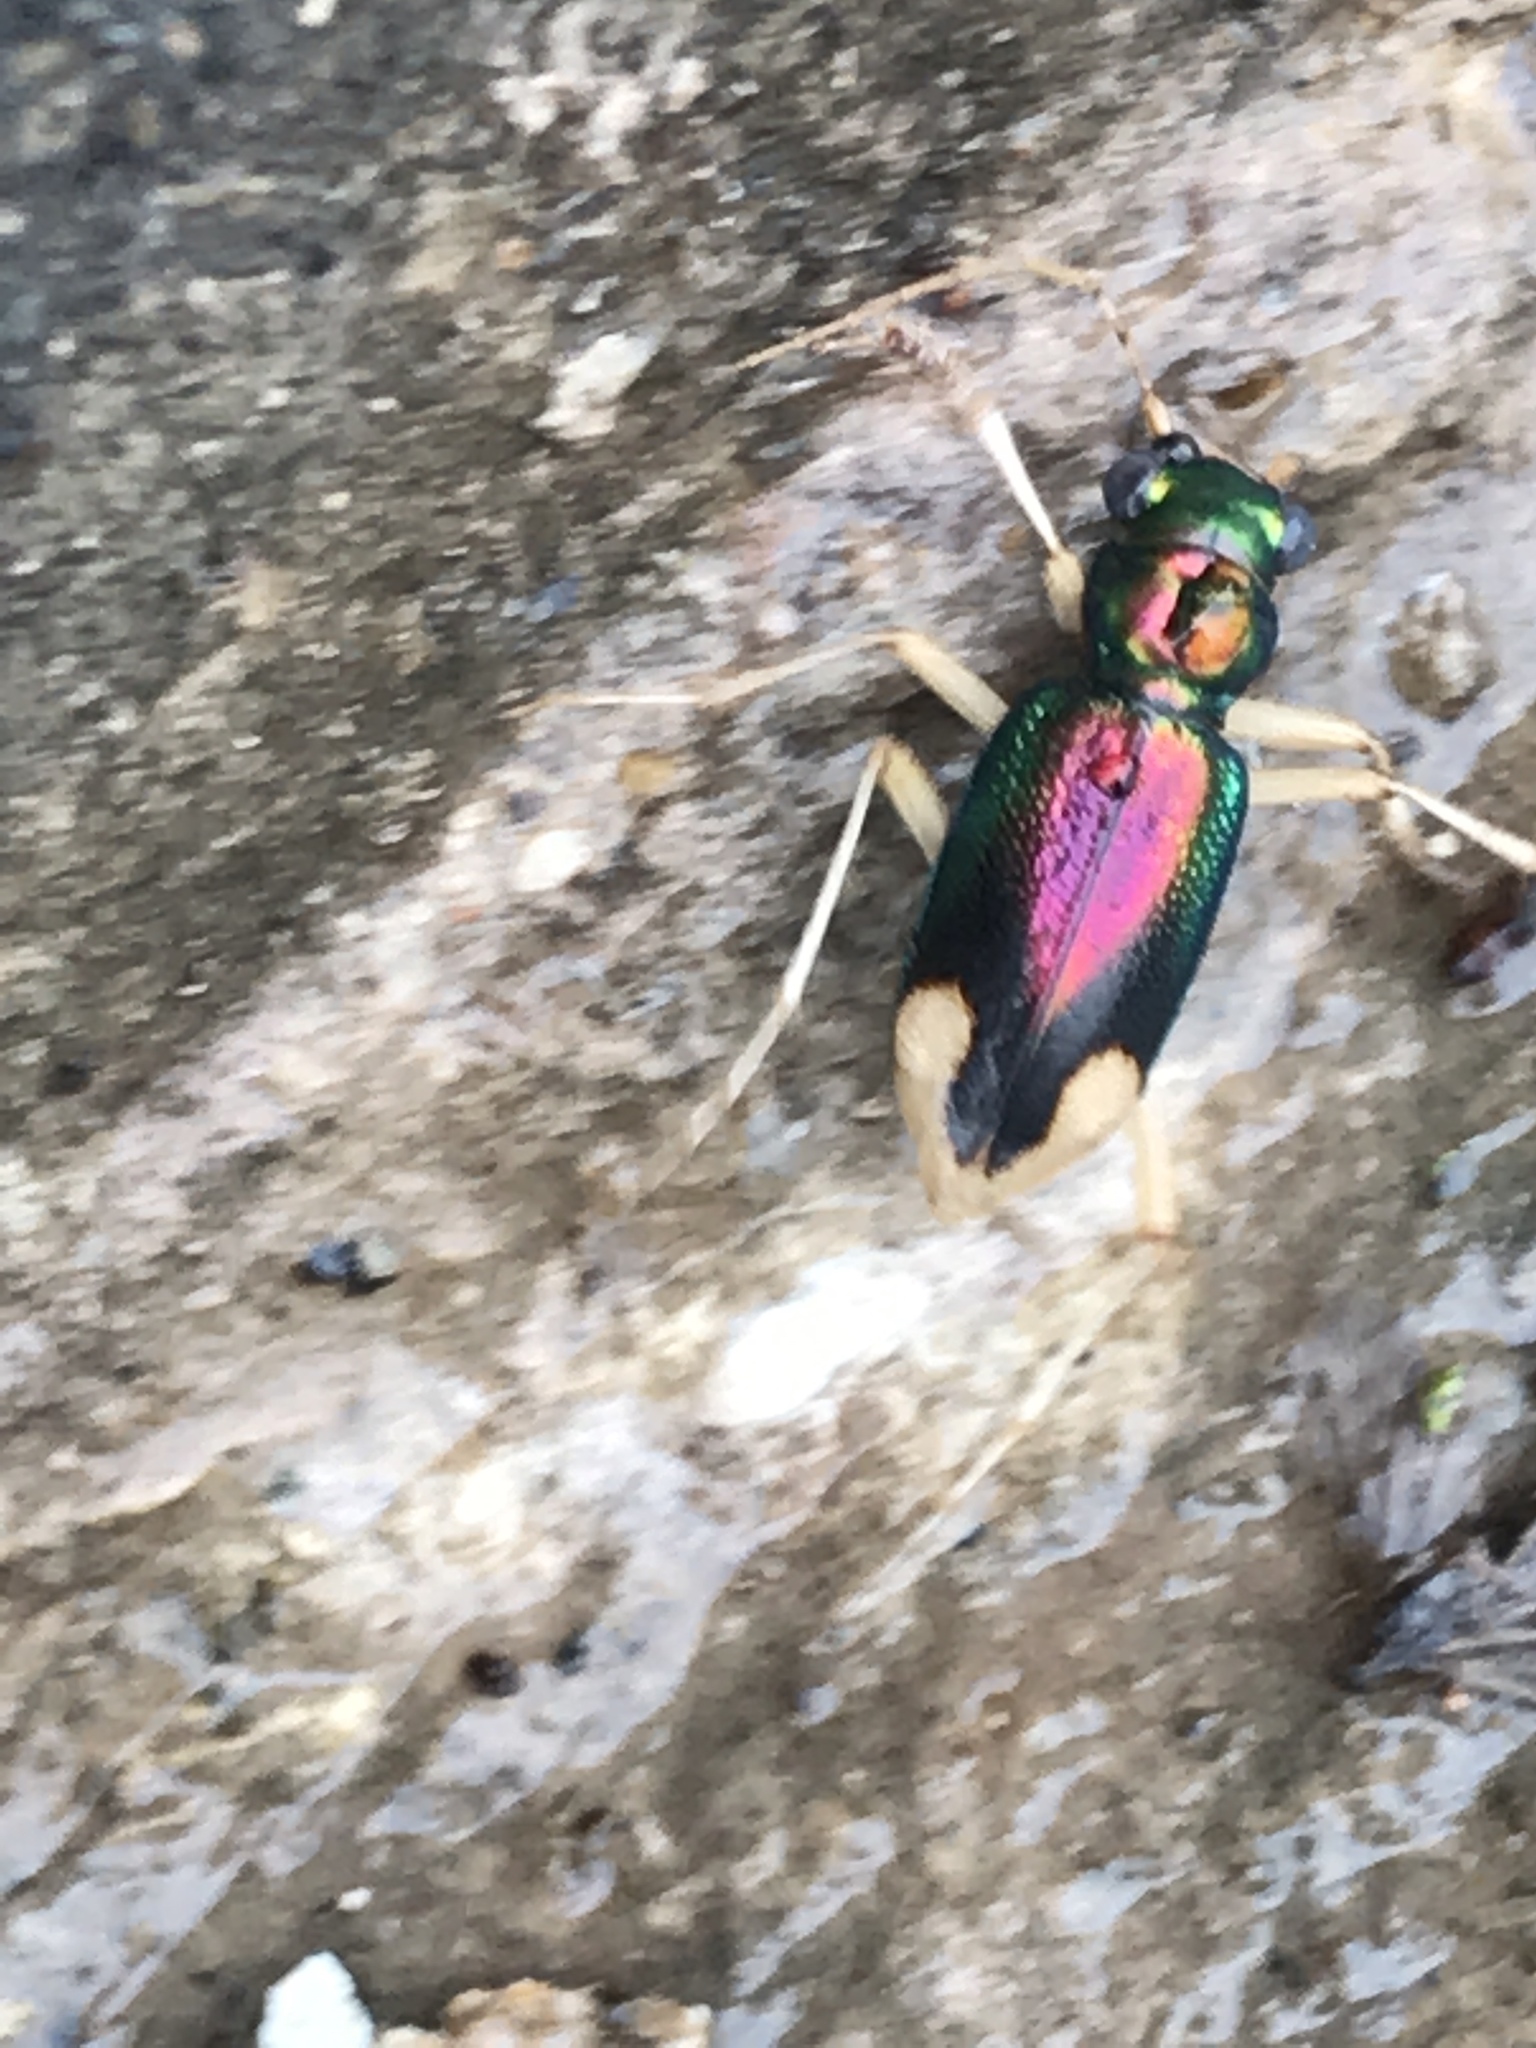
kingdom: Animalia
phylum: Arthropoda
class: Insecta
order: Coleoptera
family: Carabidae
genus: Tetracha
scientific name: Tetracha carolina
